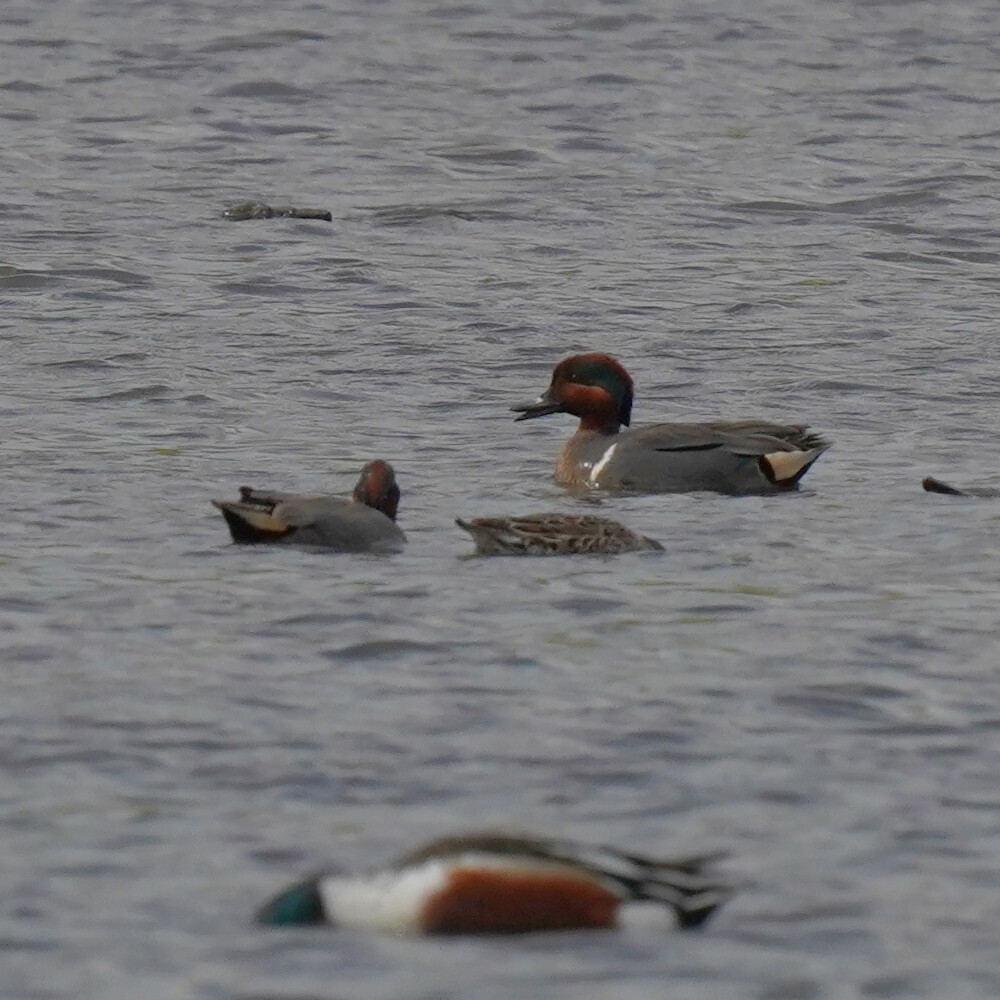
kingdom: Animalia
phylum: Chordata
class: Aves
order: Anseriformes
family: Anatidae
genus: Anas
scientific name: Anas crecca
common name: Eurasian teal
